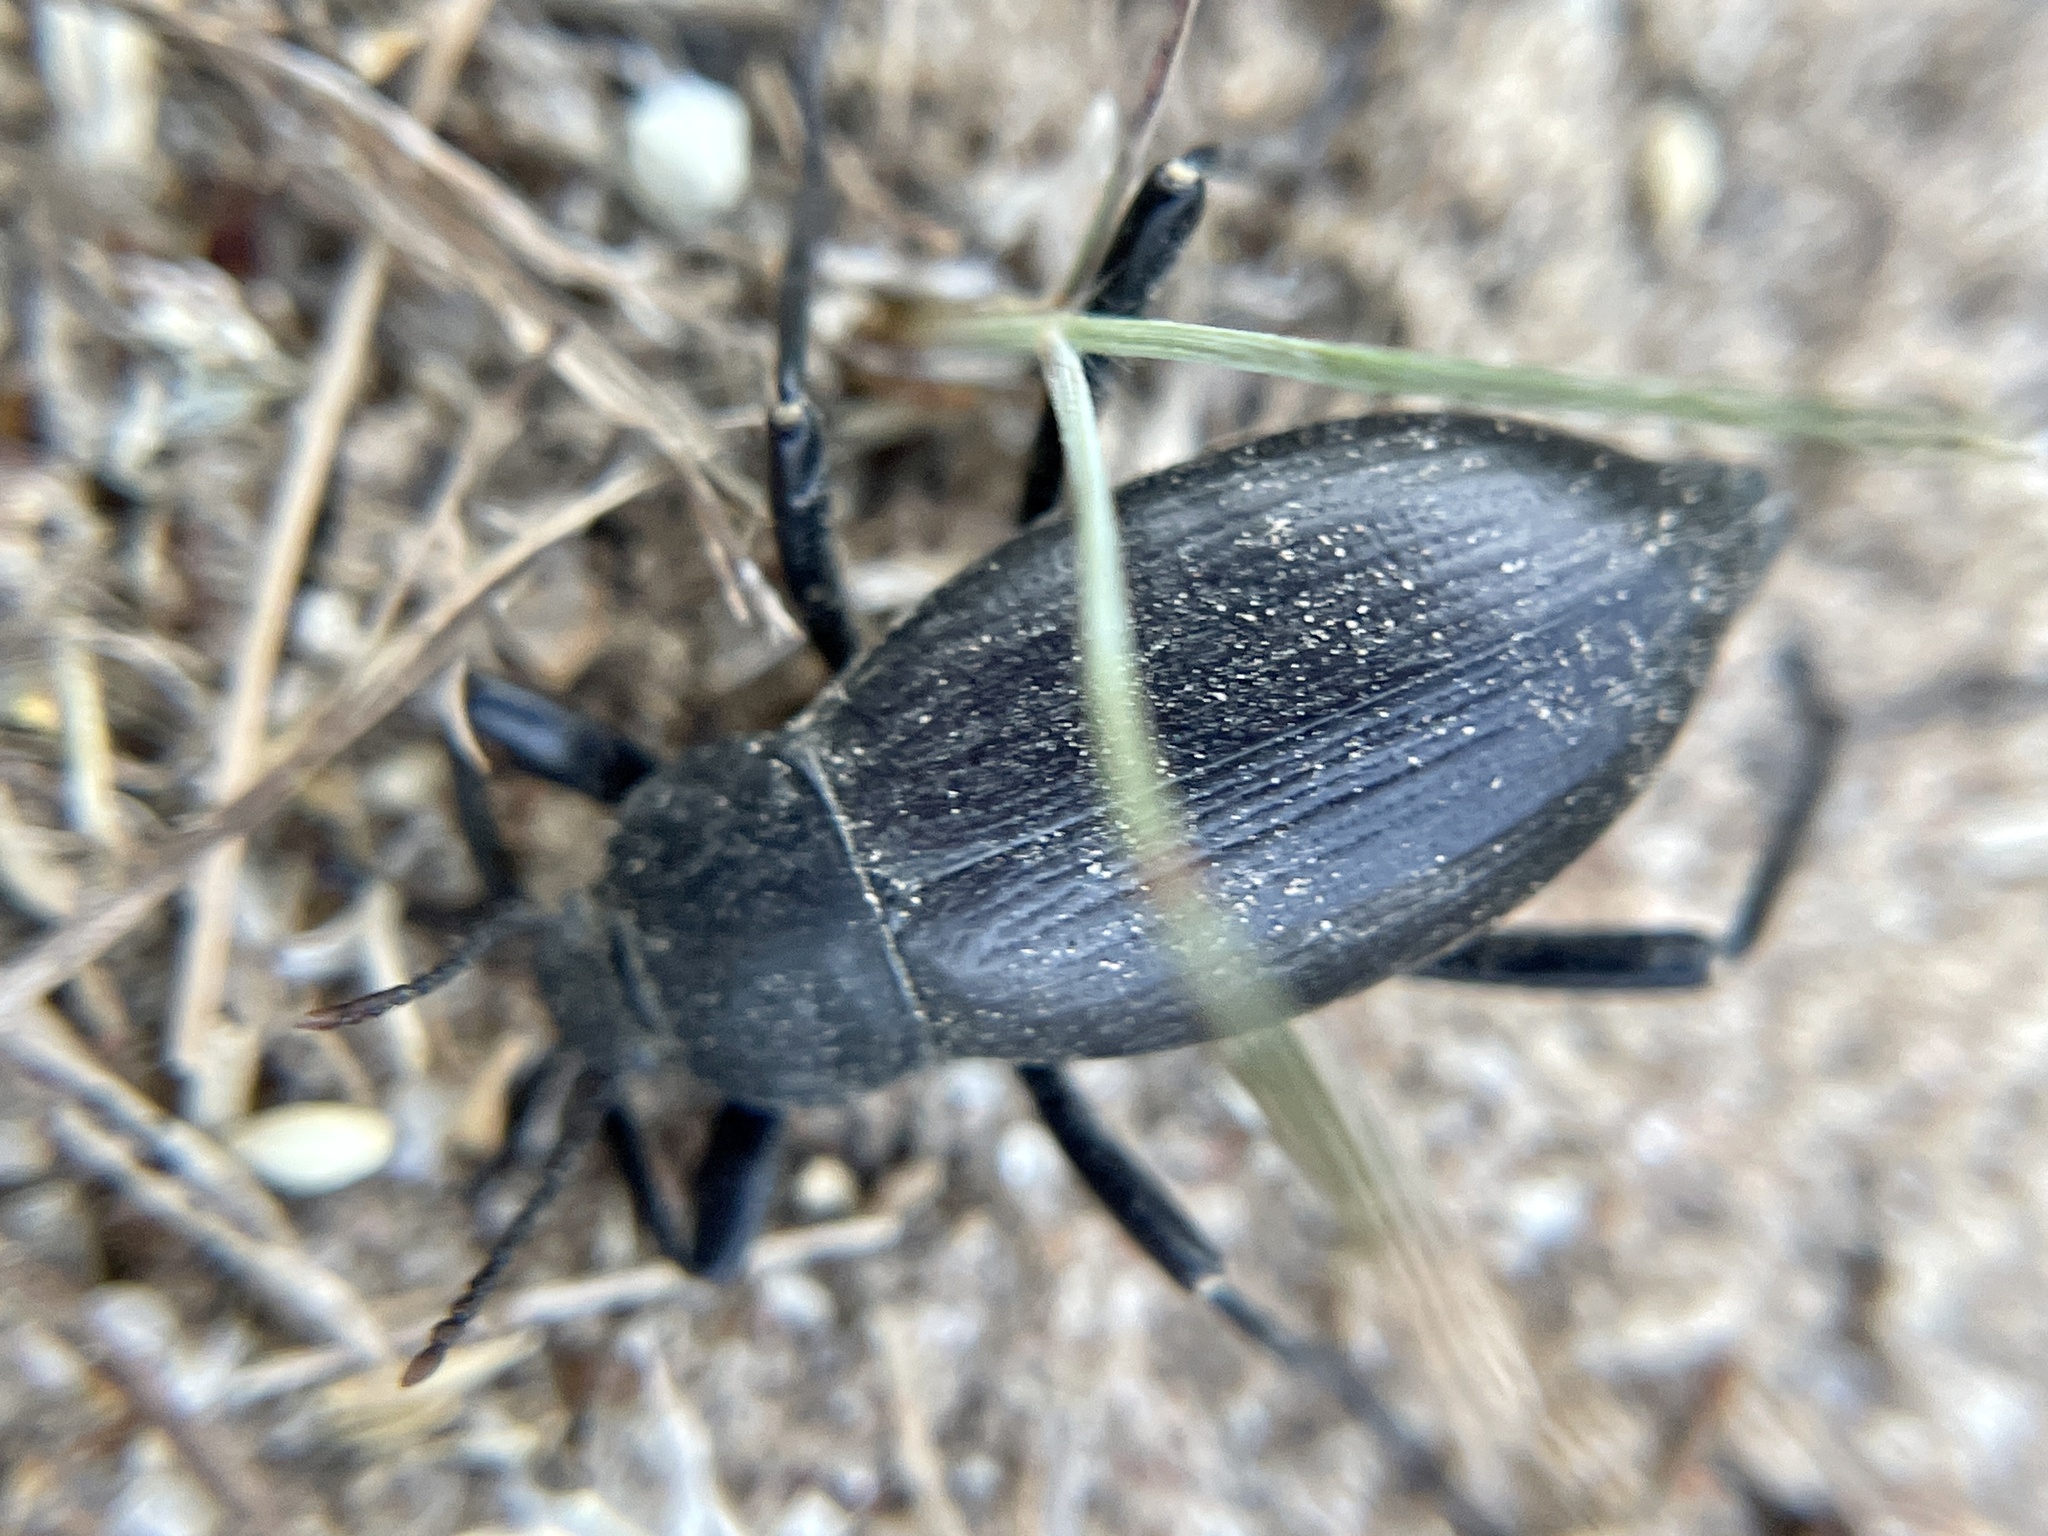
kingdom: Animalia
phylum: Arthropoda
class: Insecta
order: Coleoptera
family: Tenebrionidae
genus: Eleodes
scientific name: Eleodes striolata
